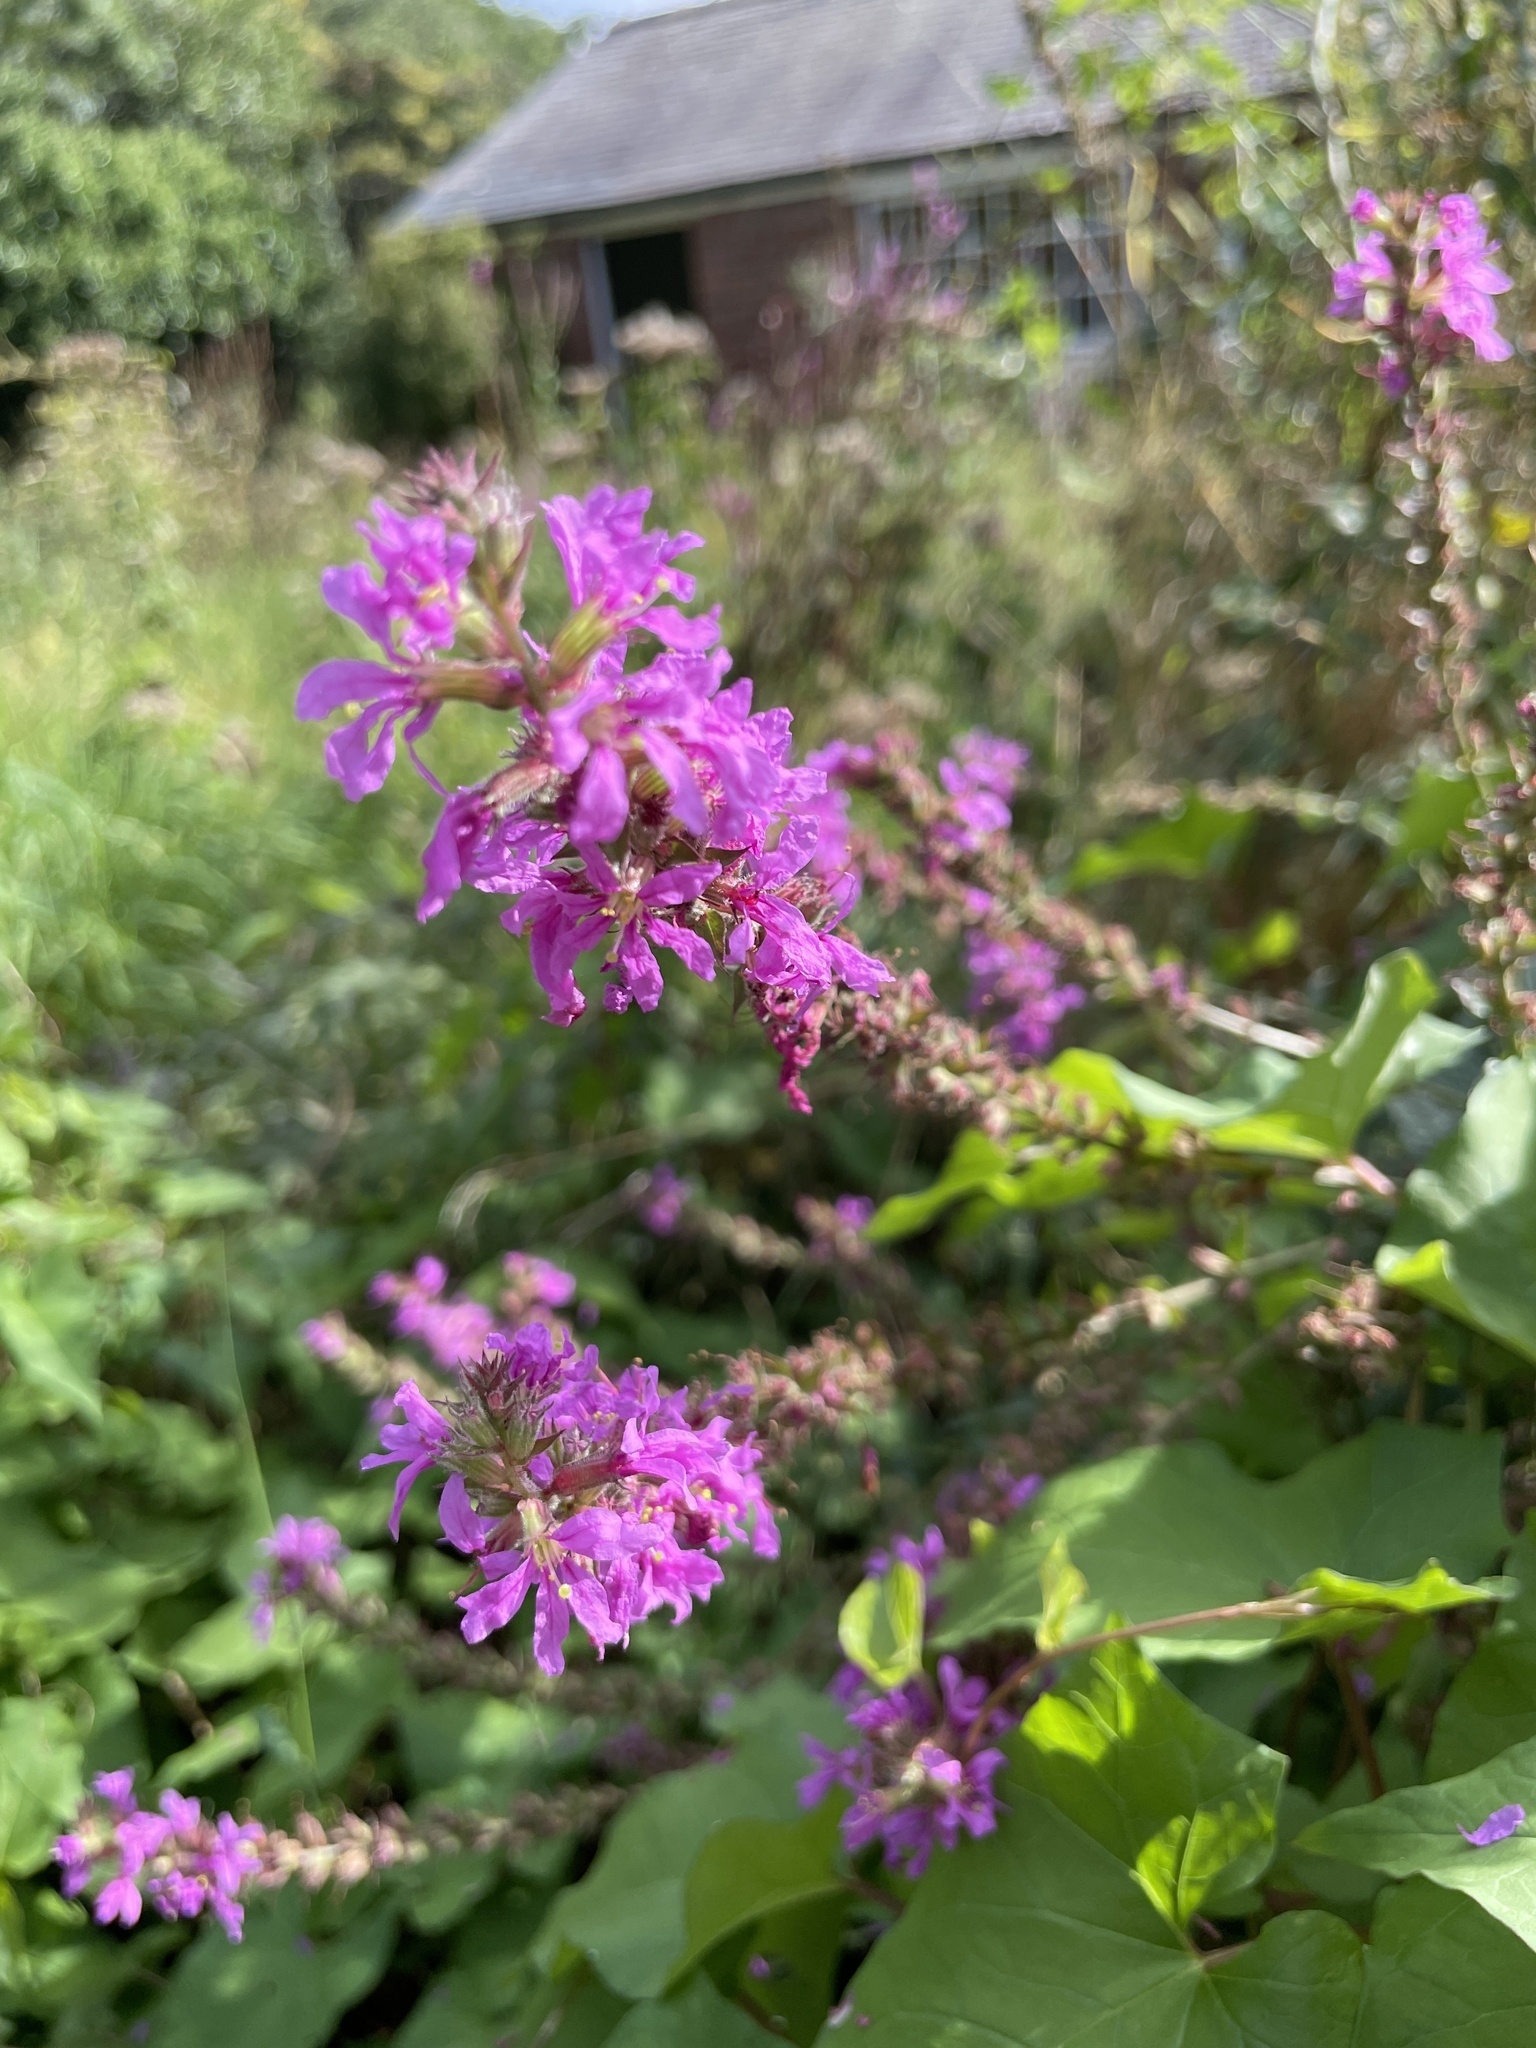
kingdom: Plantae
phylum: Tracheophyta
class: Magnoliopsida
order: Myrtales
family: Lythraceae
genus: Lythrum
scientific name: Lythrum salicaria
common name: Purple loosestrife
